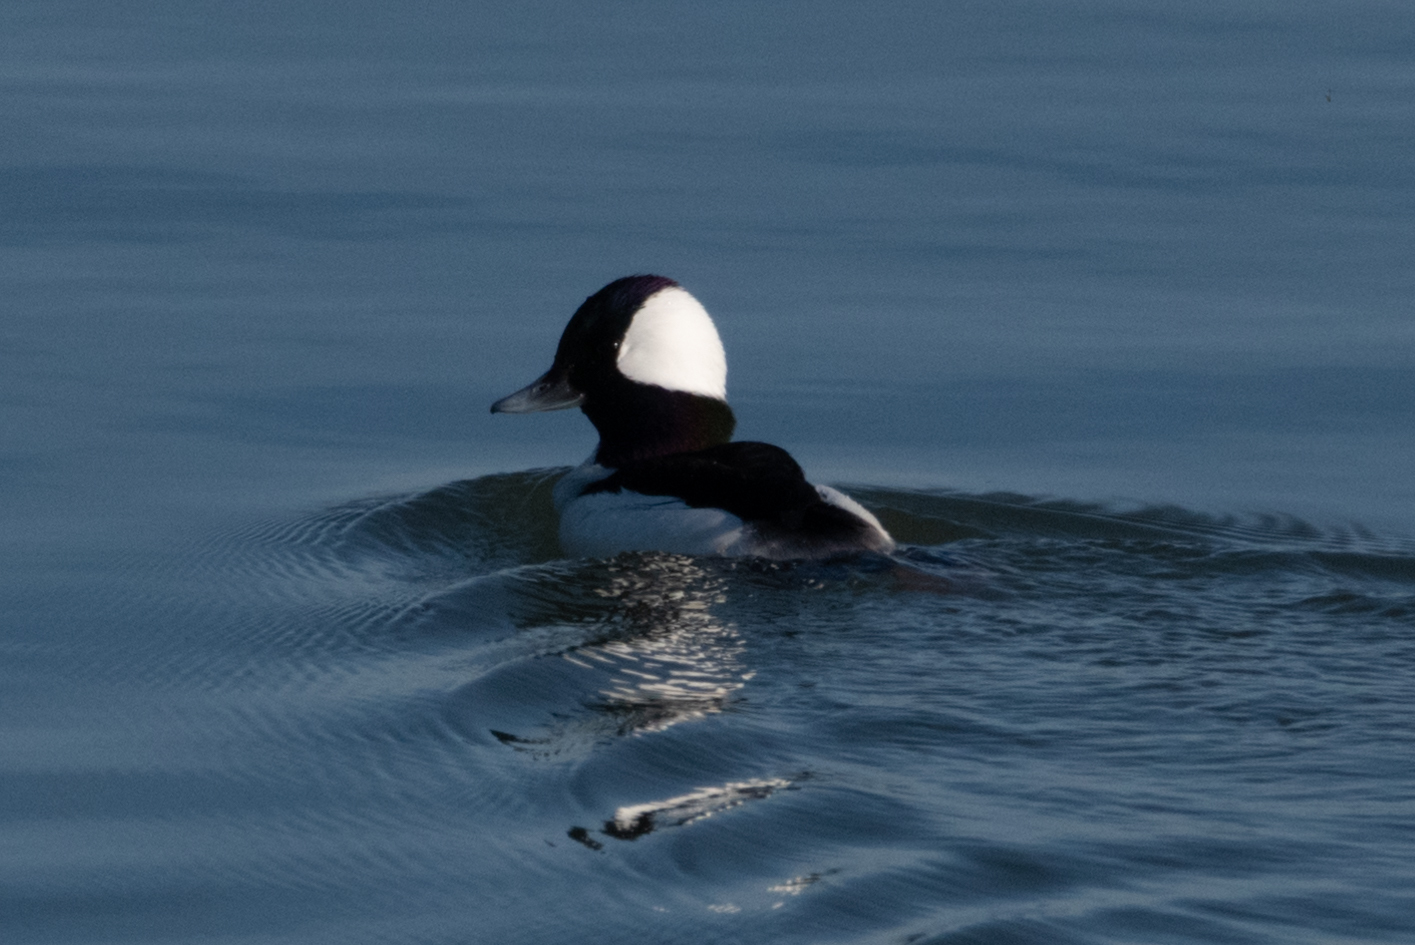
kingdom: Animalia
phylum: Chordata
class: Aves
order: Anseriformes
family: Anatidae
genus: Bucephala
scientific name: Bucephala albeola
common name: Bufflehead
